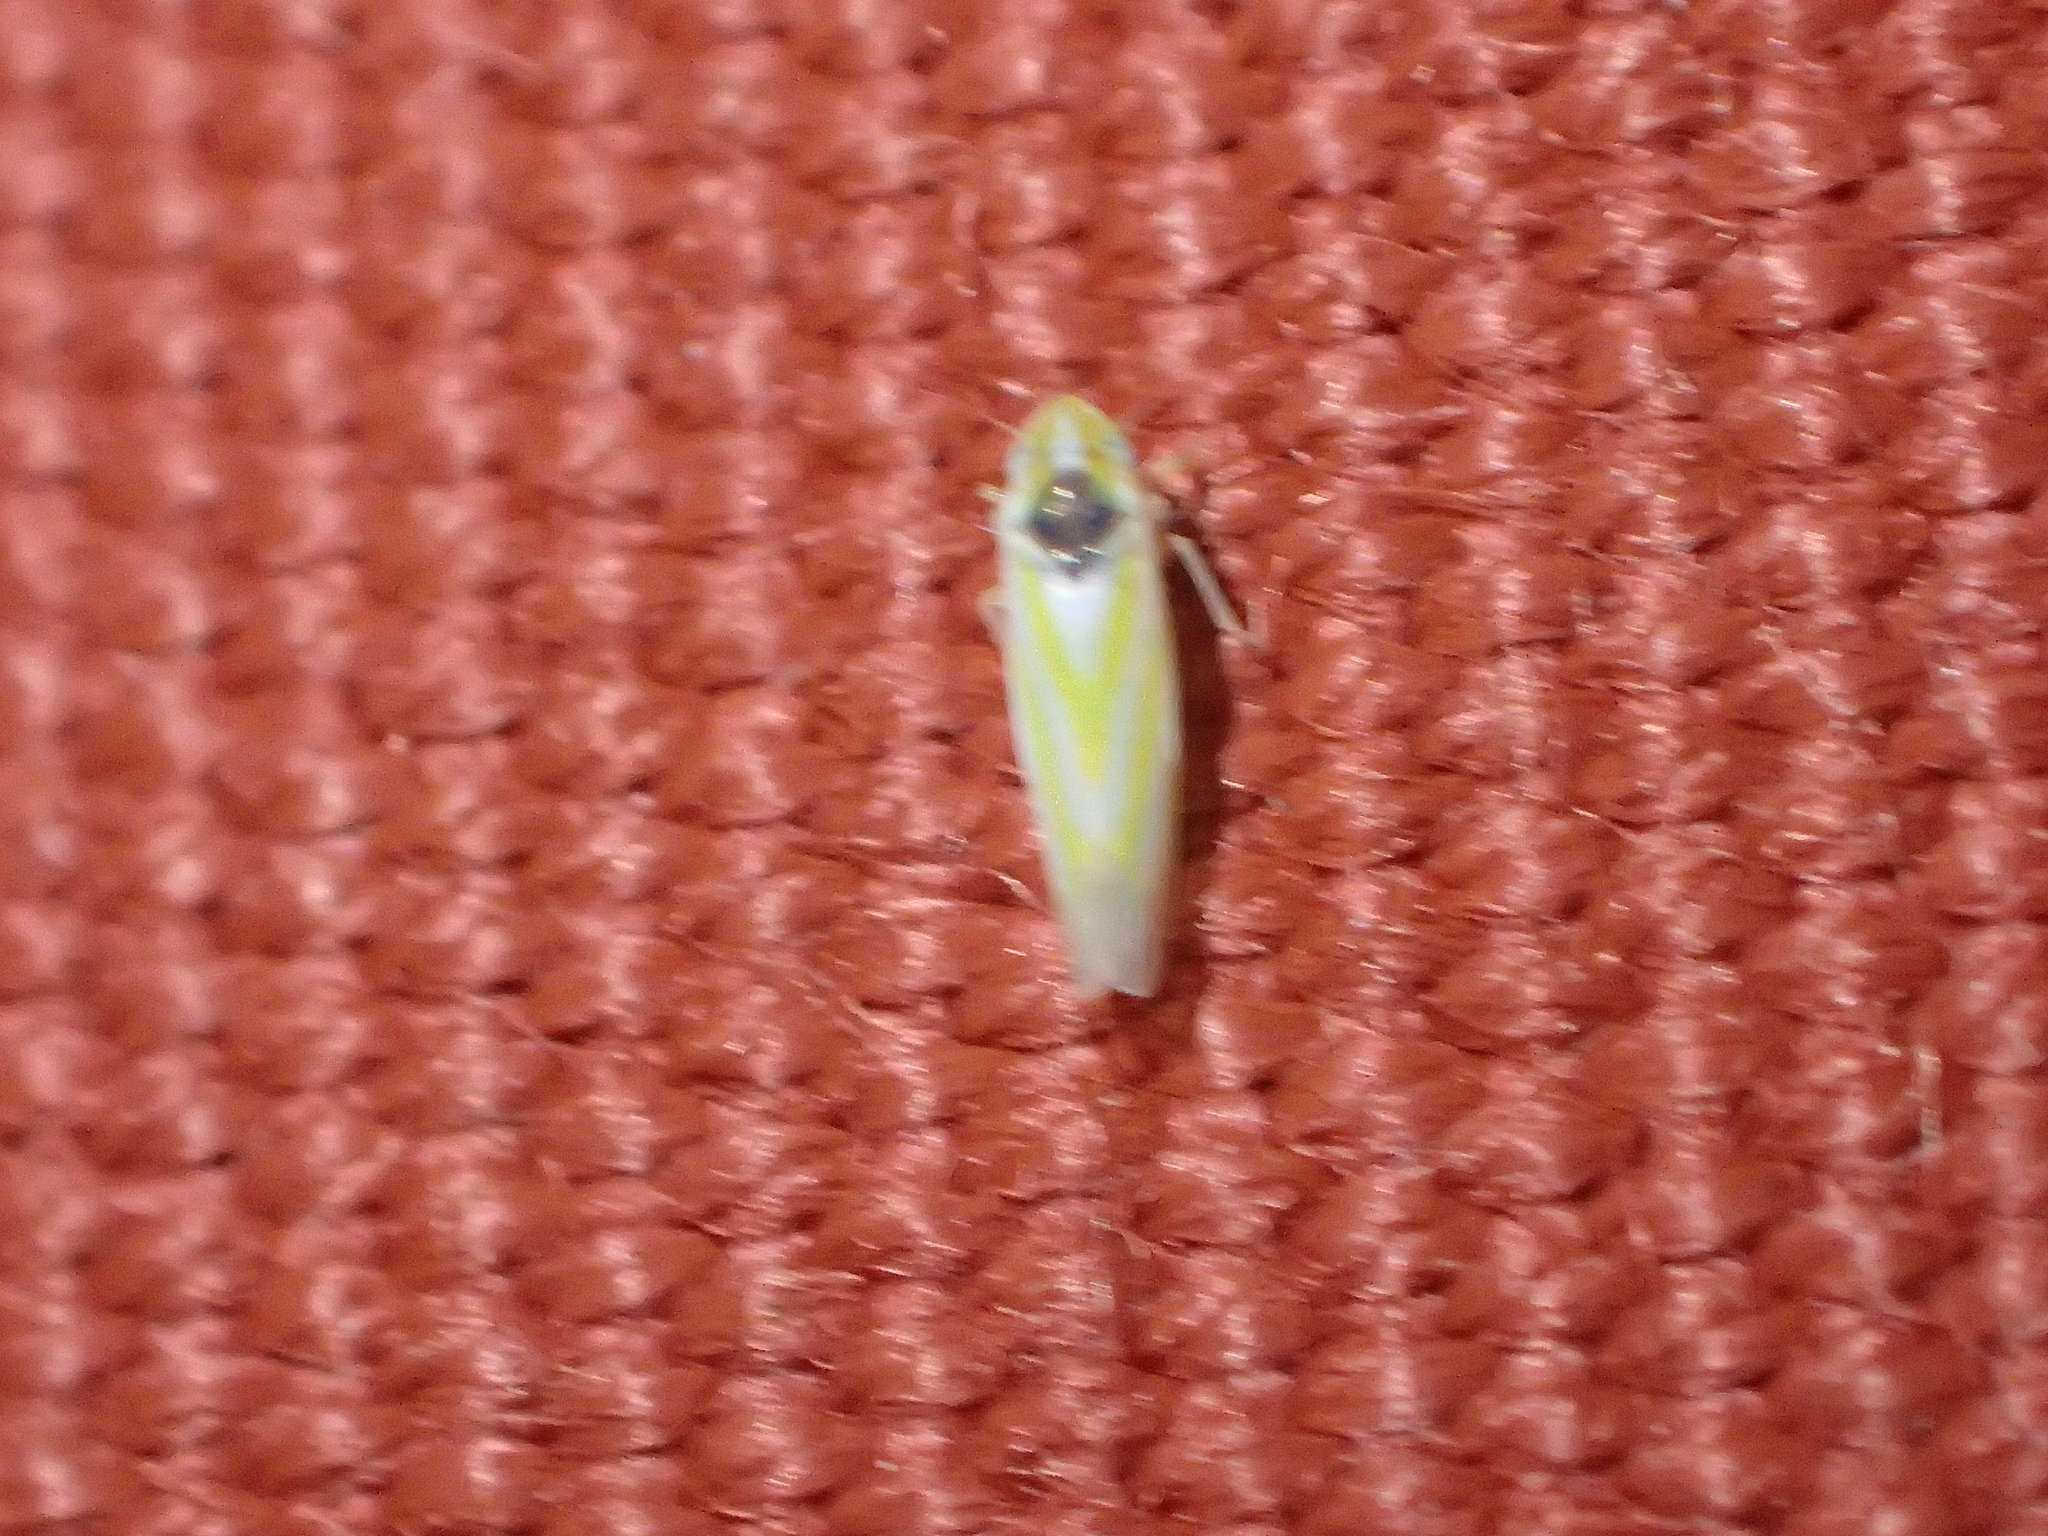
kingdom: Animalia
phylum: Arthropoda
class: Insecta
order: Hemiptera
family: Cicadellidae
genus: Erythridula
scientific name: Erythridula pfrimmeri
